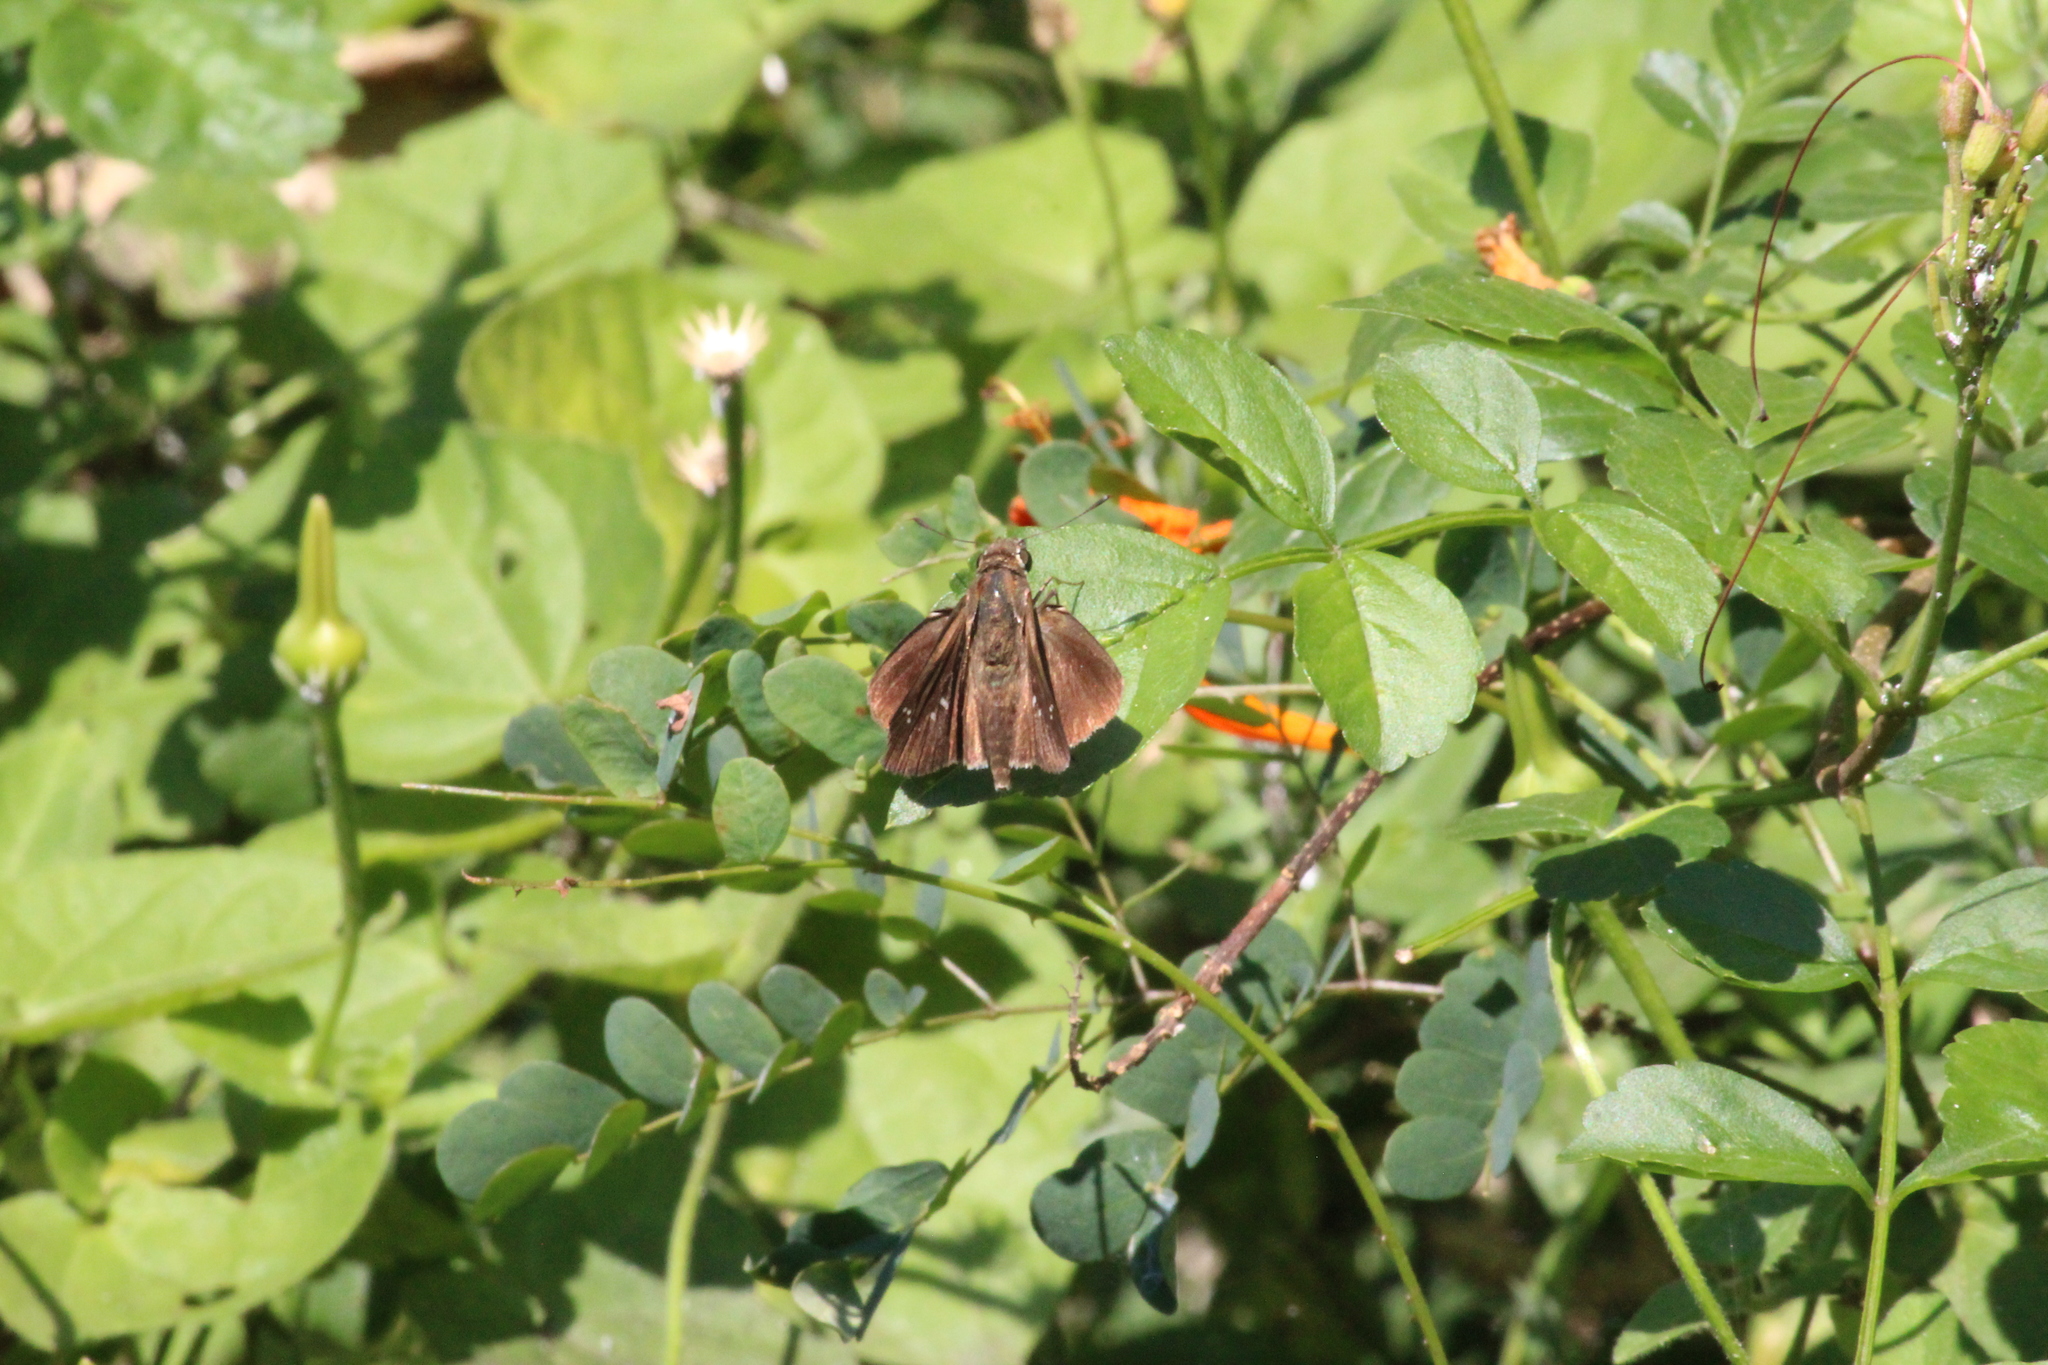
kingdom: Animalia
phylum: Arthropoda
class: Insecta
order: Lepidoptera
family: Hesperiidae
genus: Baoris
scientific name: Baoris fatuellus
